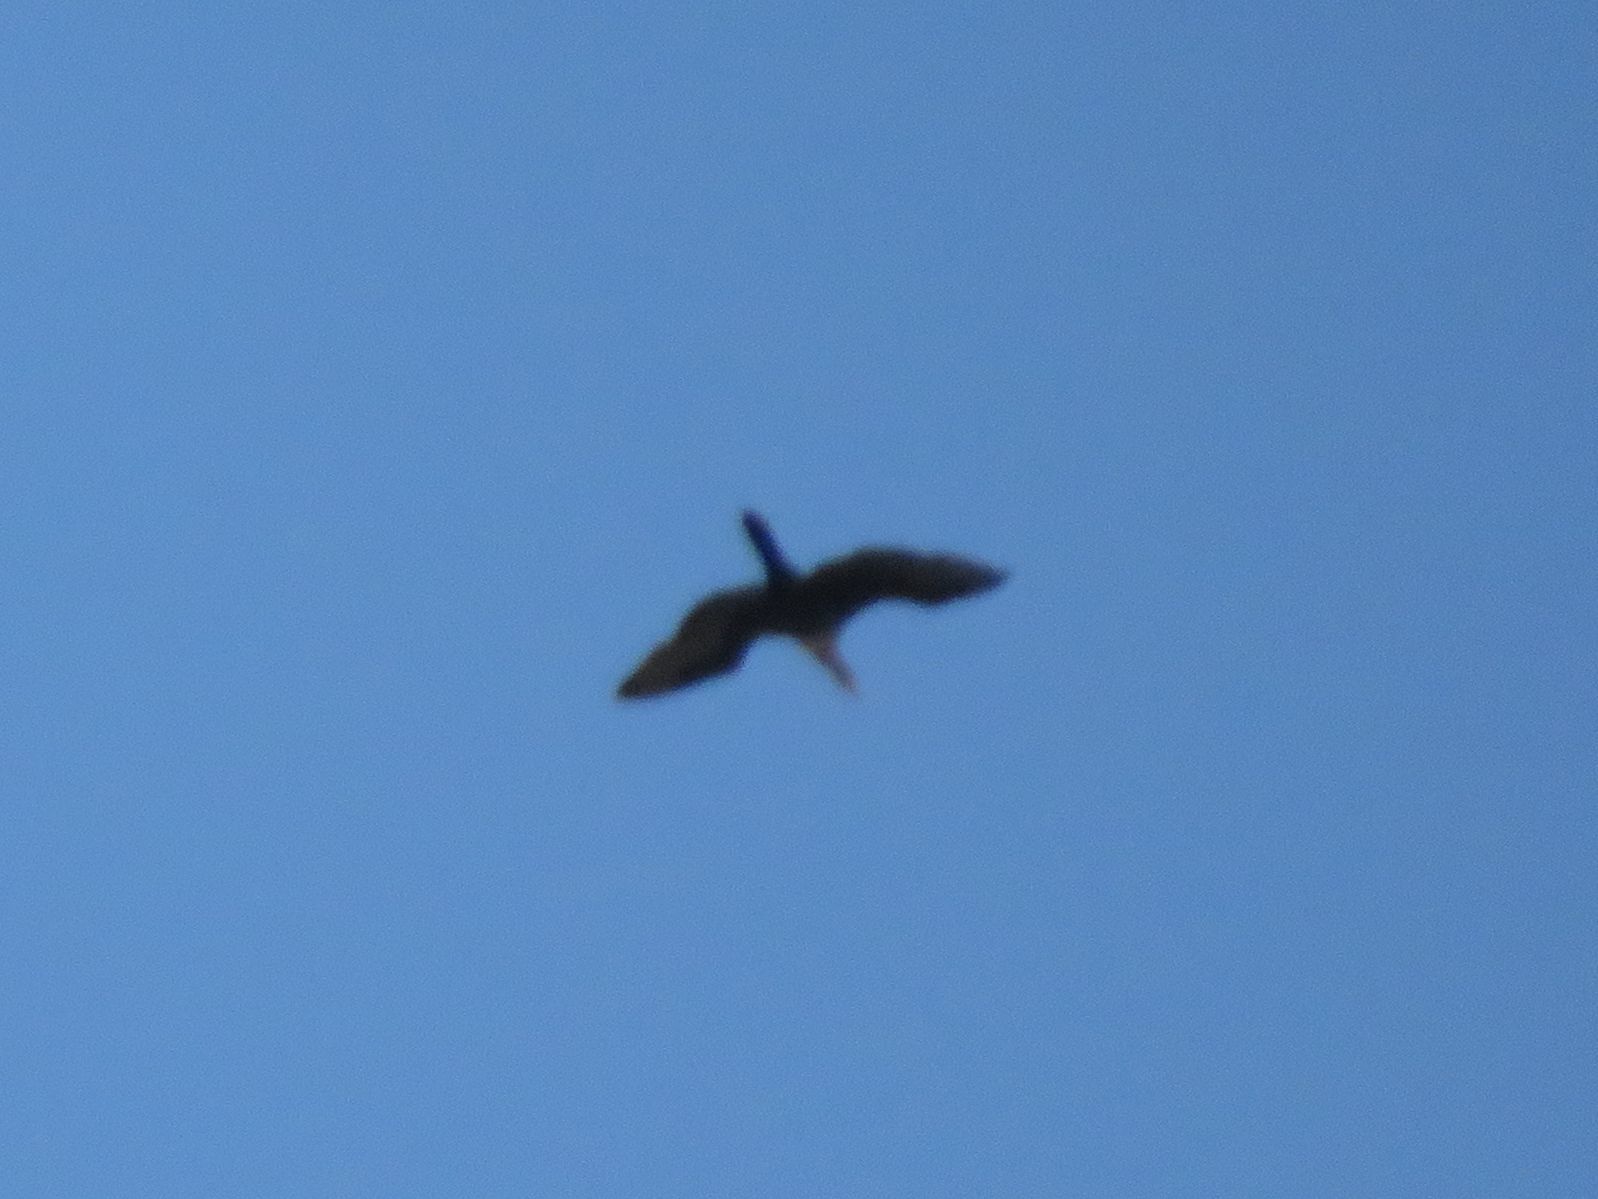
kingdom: Animalia
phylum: Chordata
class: Aves
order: Suliformes
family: Anhingidae
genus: Anhinga
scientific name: Anhinga anhinga
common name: Anhinga
